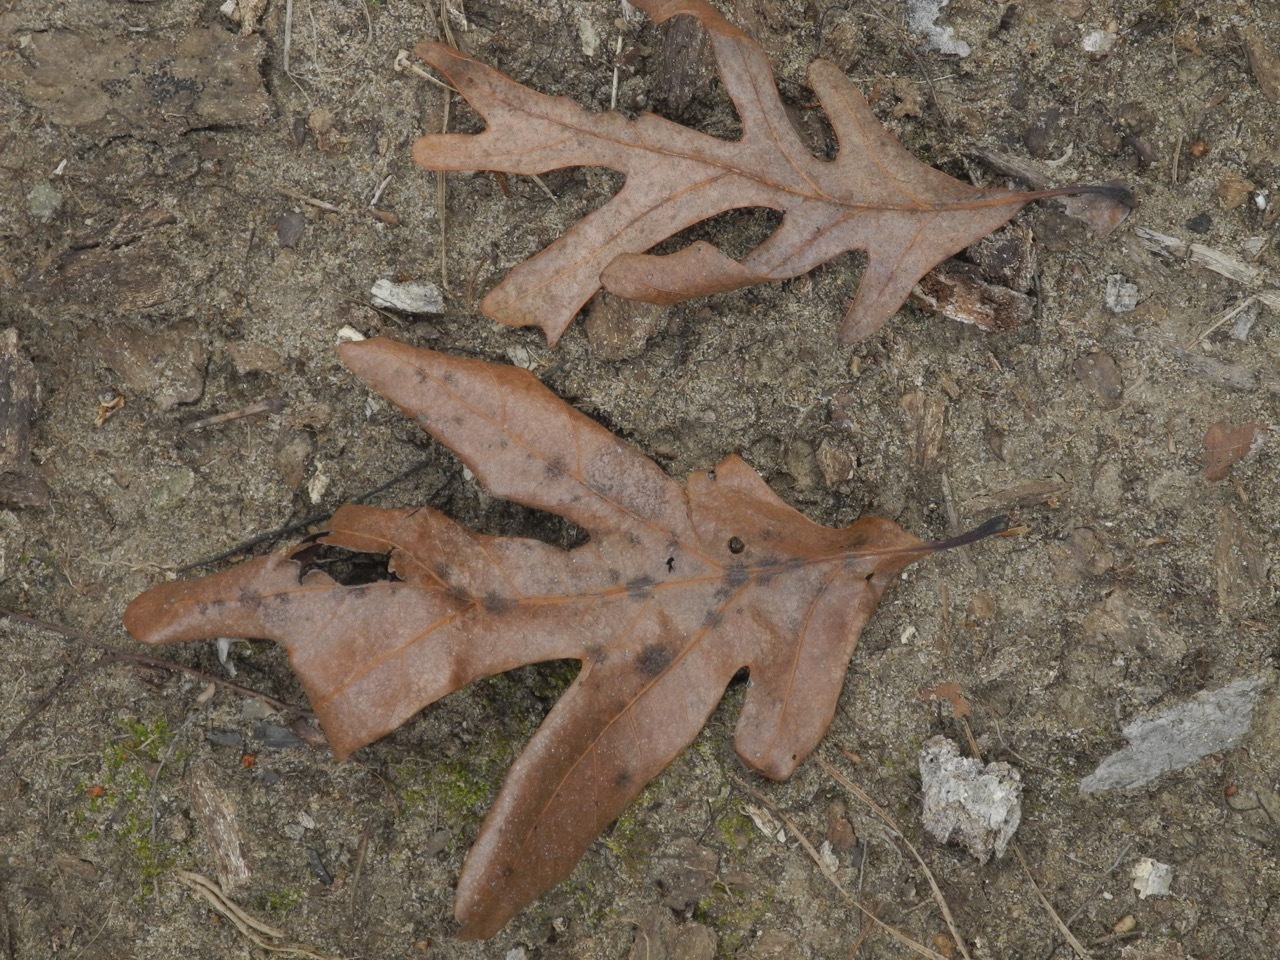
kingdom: Plantae
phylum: Tracheophyta
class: Magnoliopsida
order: Fagales
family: Fagaceae
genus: Quercus
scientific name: Quercus alba
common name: White oak
